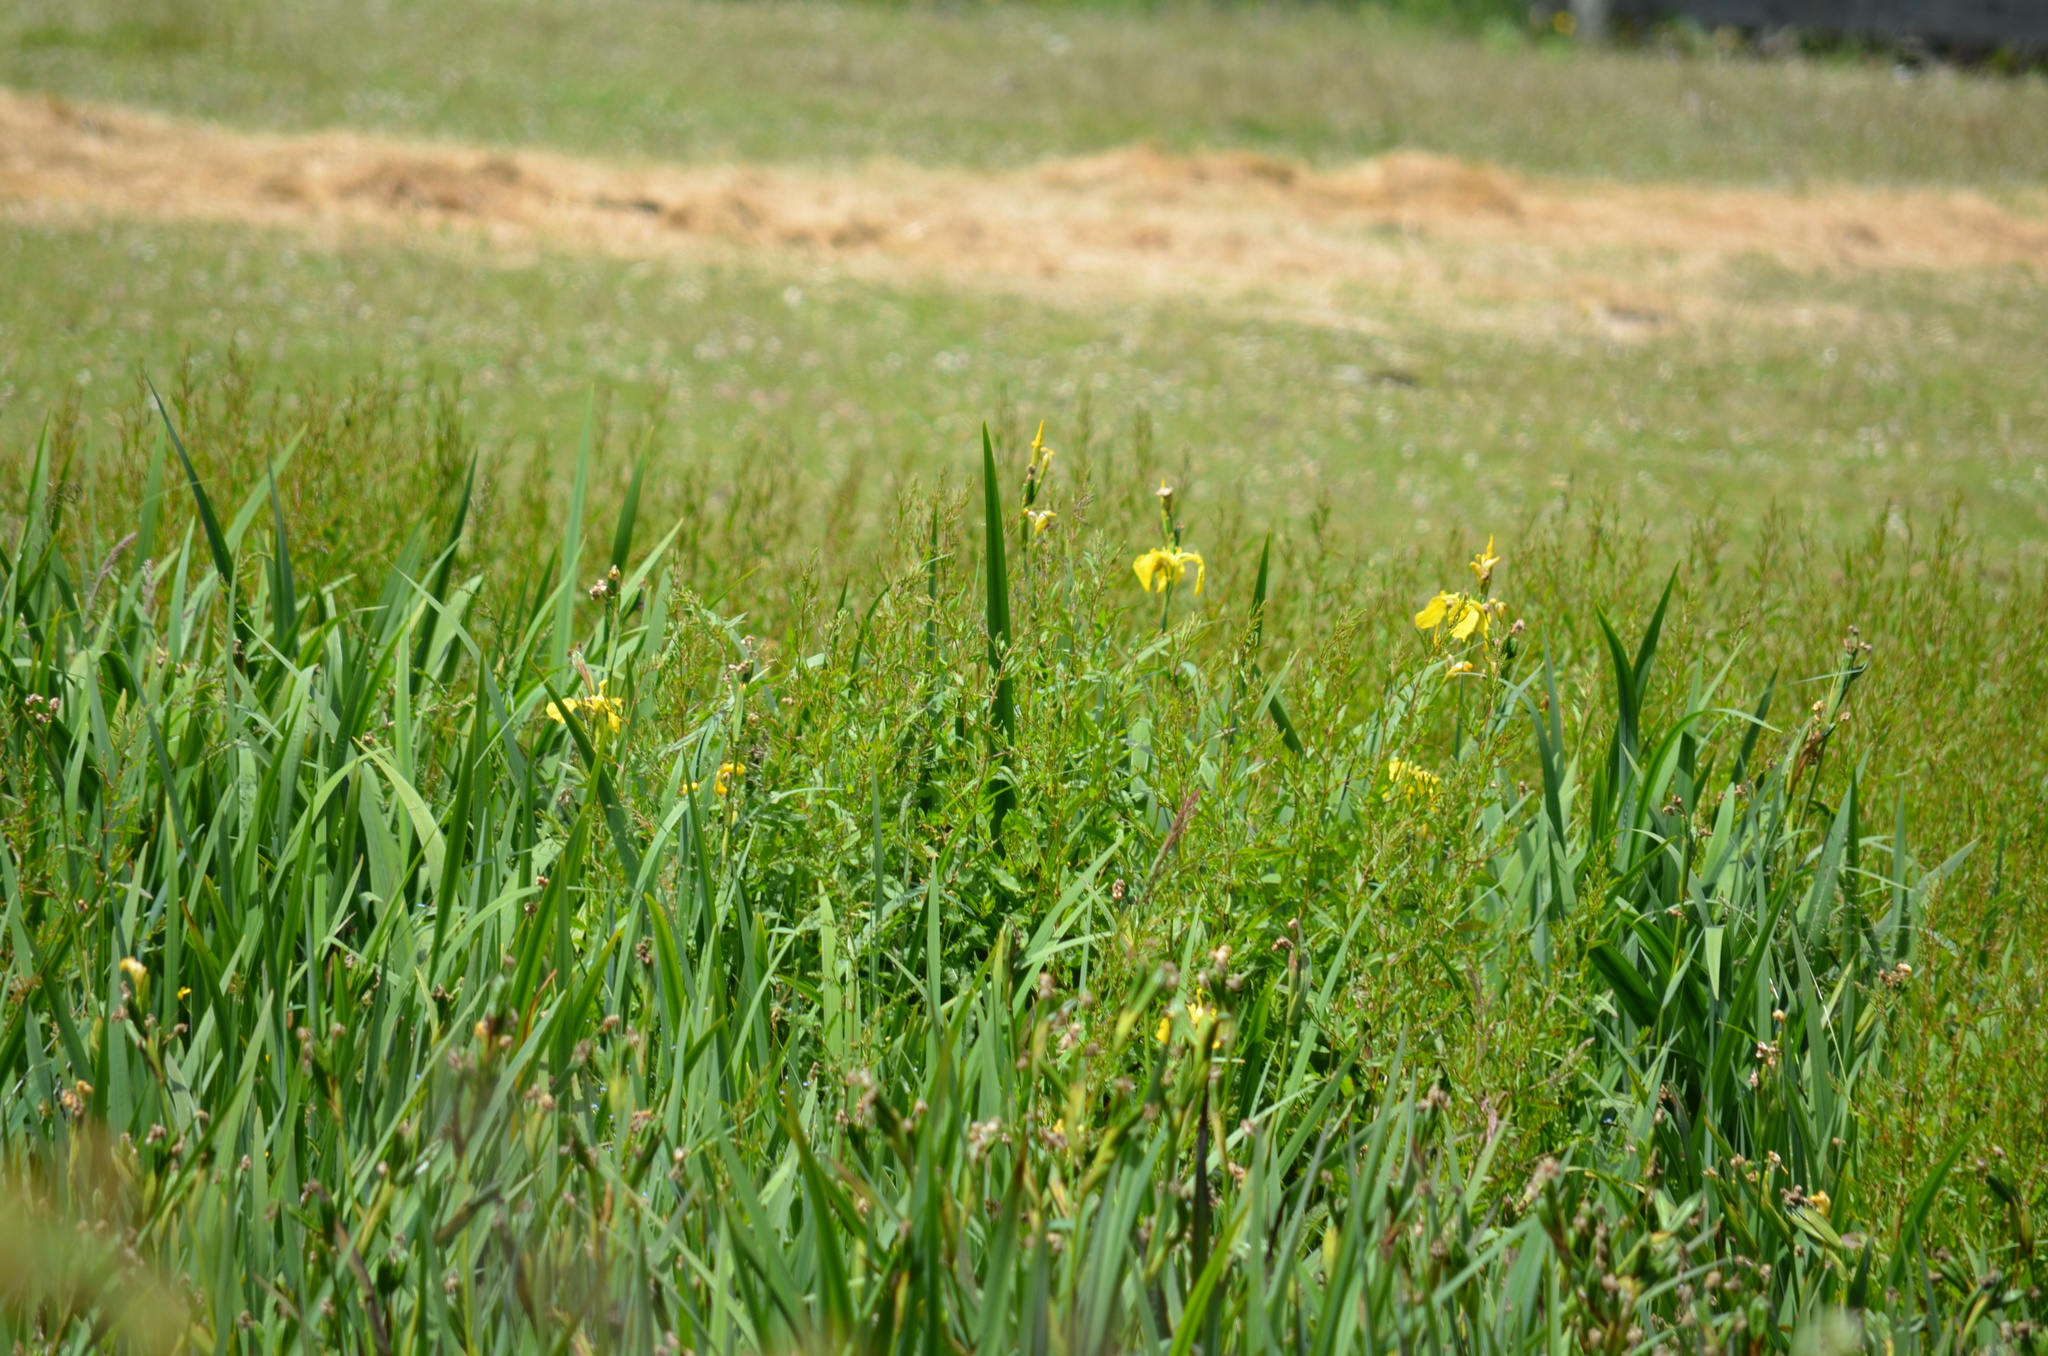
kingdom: Plantae
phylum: Tracheophyta
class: Liliopsida
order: Asparagales
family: Iridaceae
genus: Iris
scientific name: Iris pseudacorus
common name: Yellow flag
